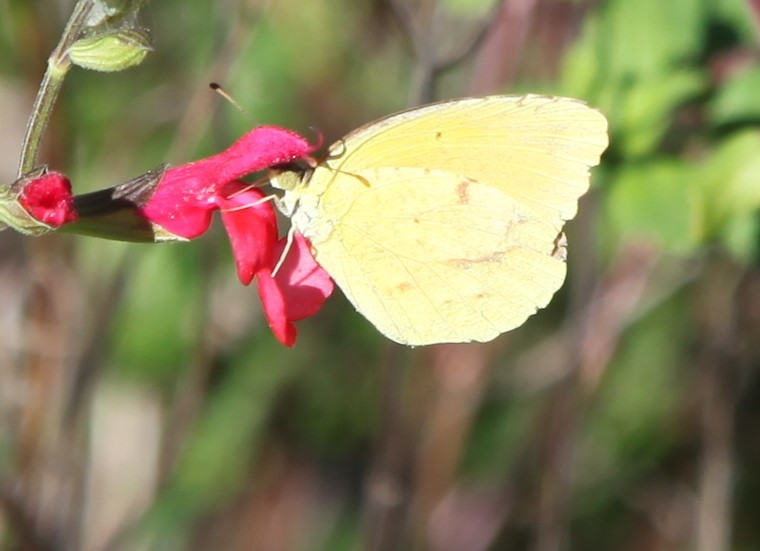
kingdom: Animalia
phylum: Arthropoda
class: Insecta
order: Lepidoptera
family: Pieridae
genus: Abaeis
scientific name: Abaeis nicippe
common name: Sleepy orange
